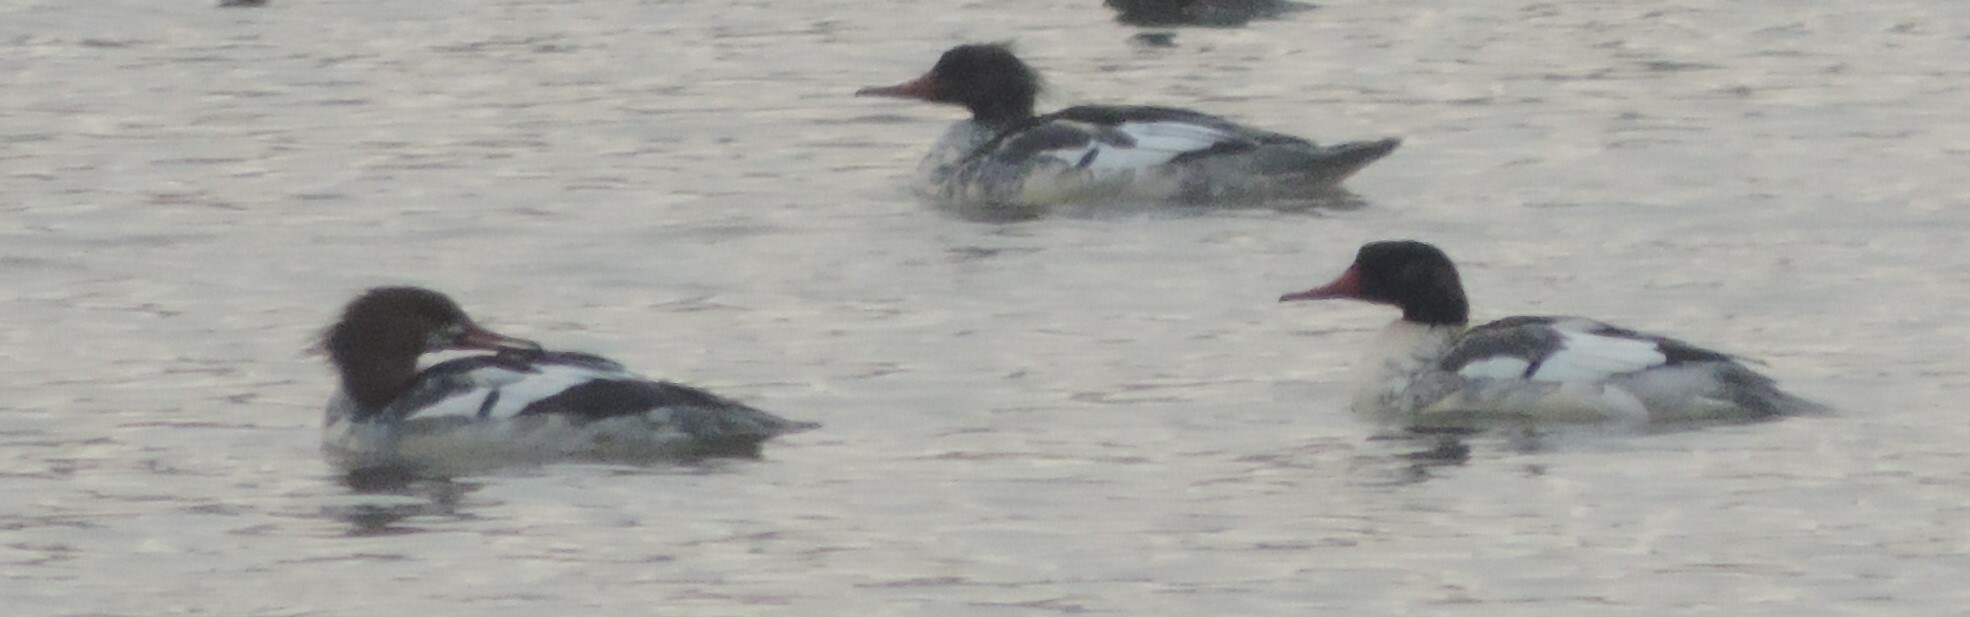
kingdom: Animalia
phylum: Chordata
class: Aves
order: Anseriformes
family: Anatidae
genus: Mergus
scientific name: Mergus merganser
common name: Common merganser
